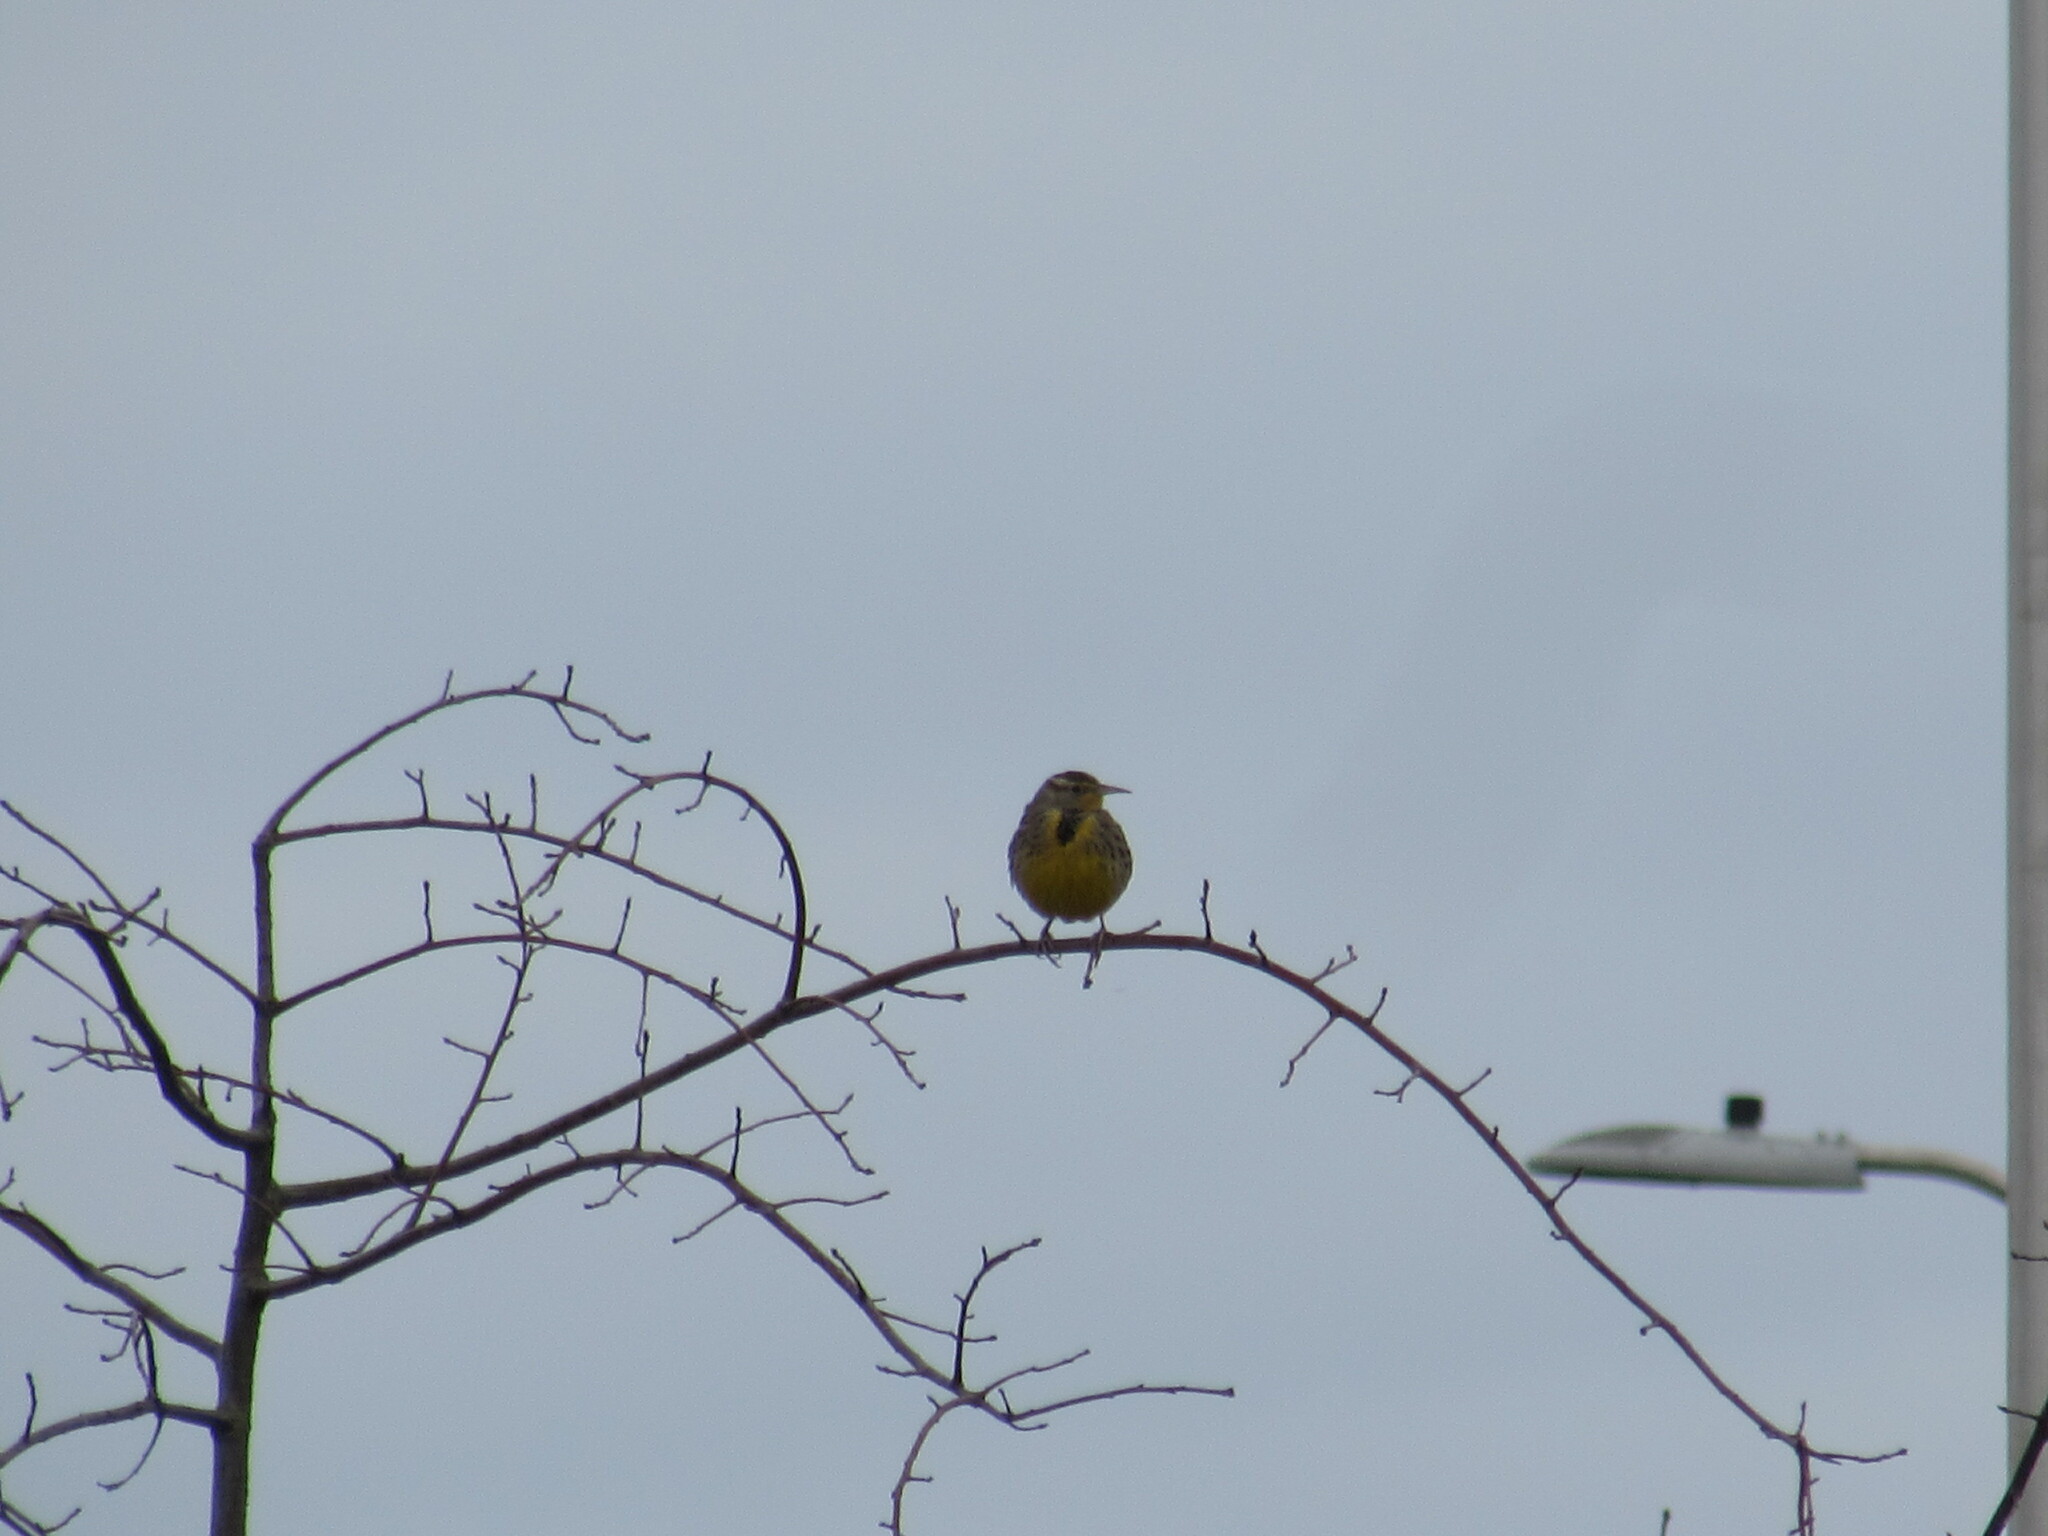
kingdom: Animalia
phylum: Chordata
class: Aves
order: Passeriformes
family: Icteridae
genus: Sturnella
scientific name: Sturnella neglecta
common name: Western meadowlark
